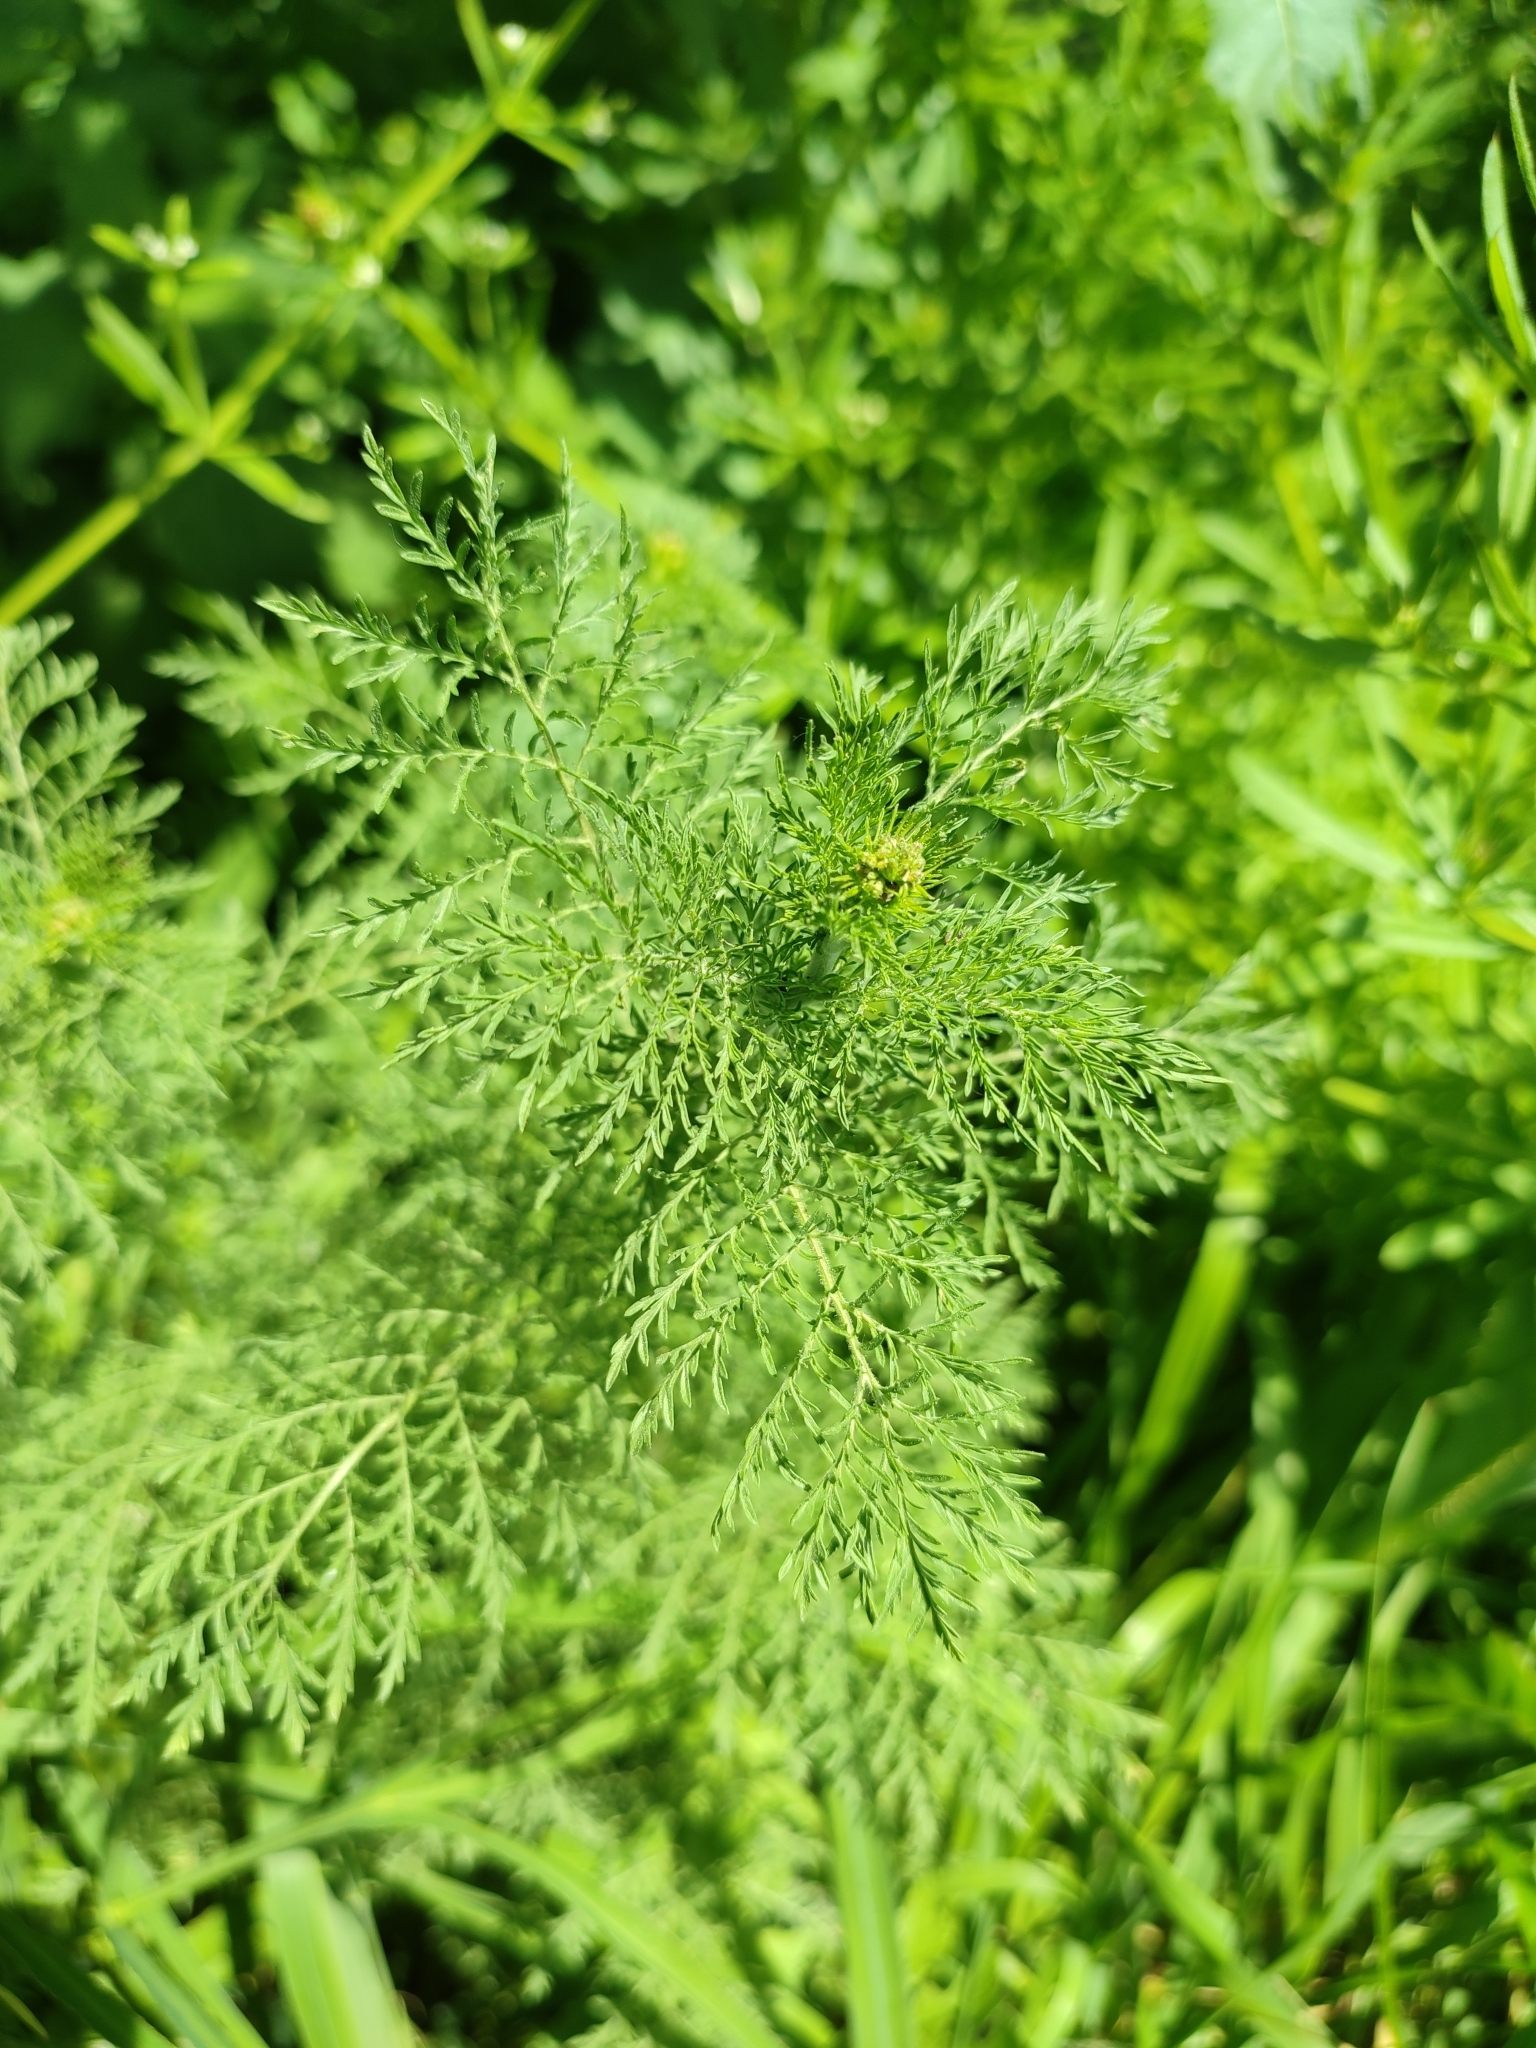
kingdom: Plantae
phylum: Tracheophyta
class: Magnoliopsida
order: Brassicales
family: Brassicaceae
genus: Descurainia
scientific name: Descurainia sophia
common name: Flixweed
